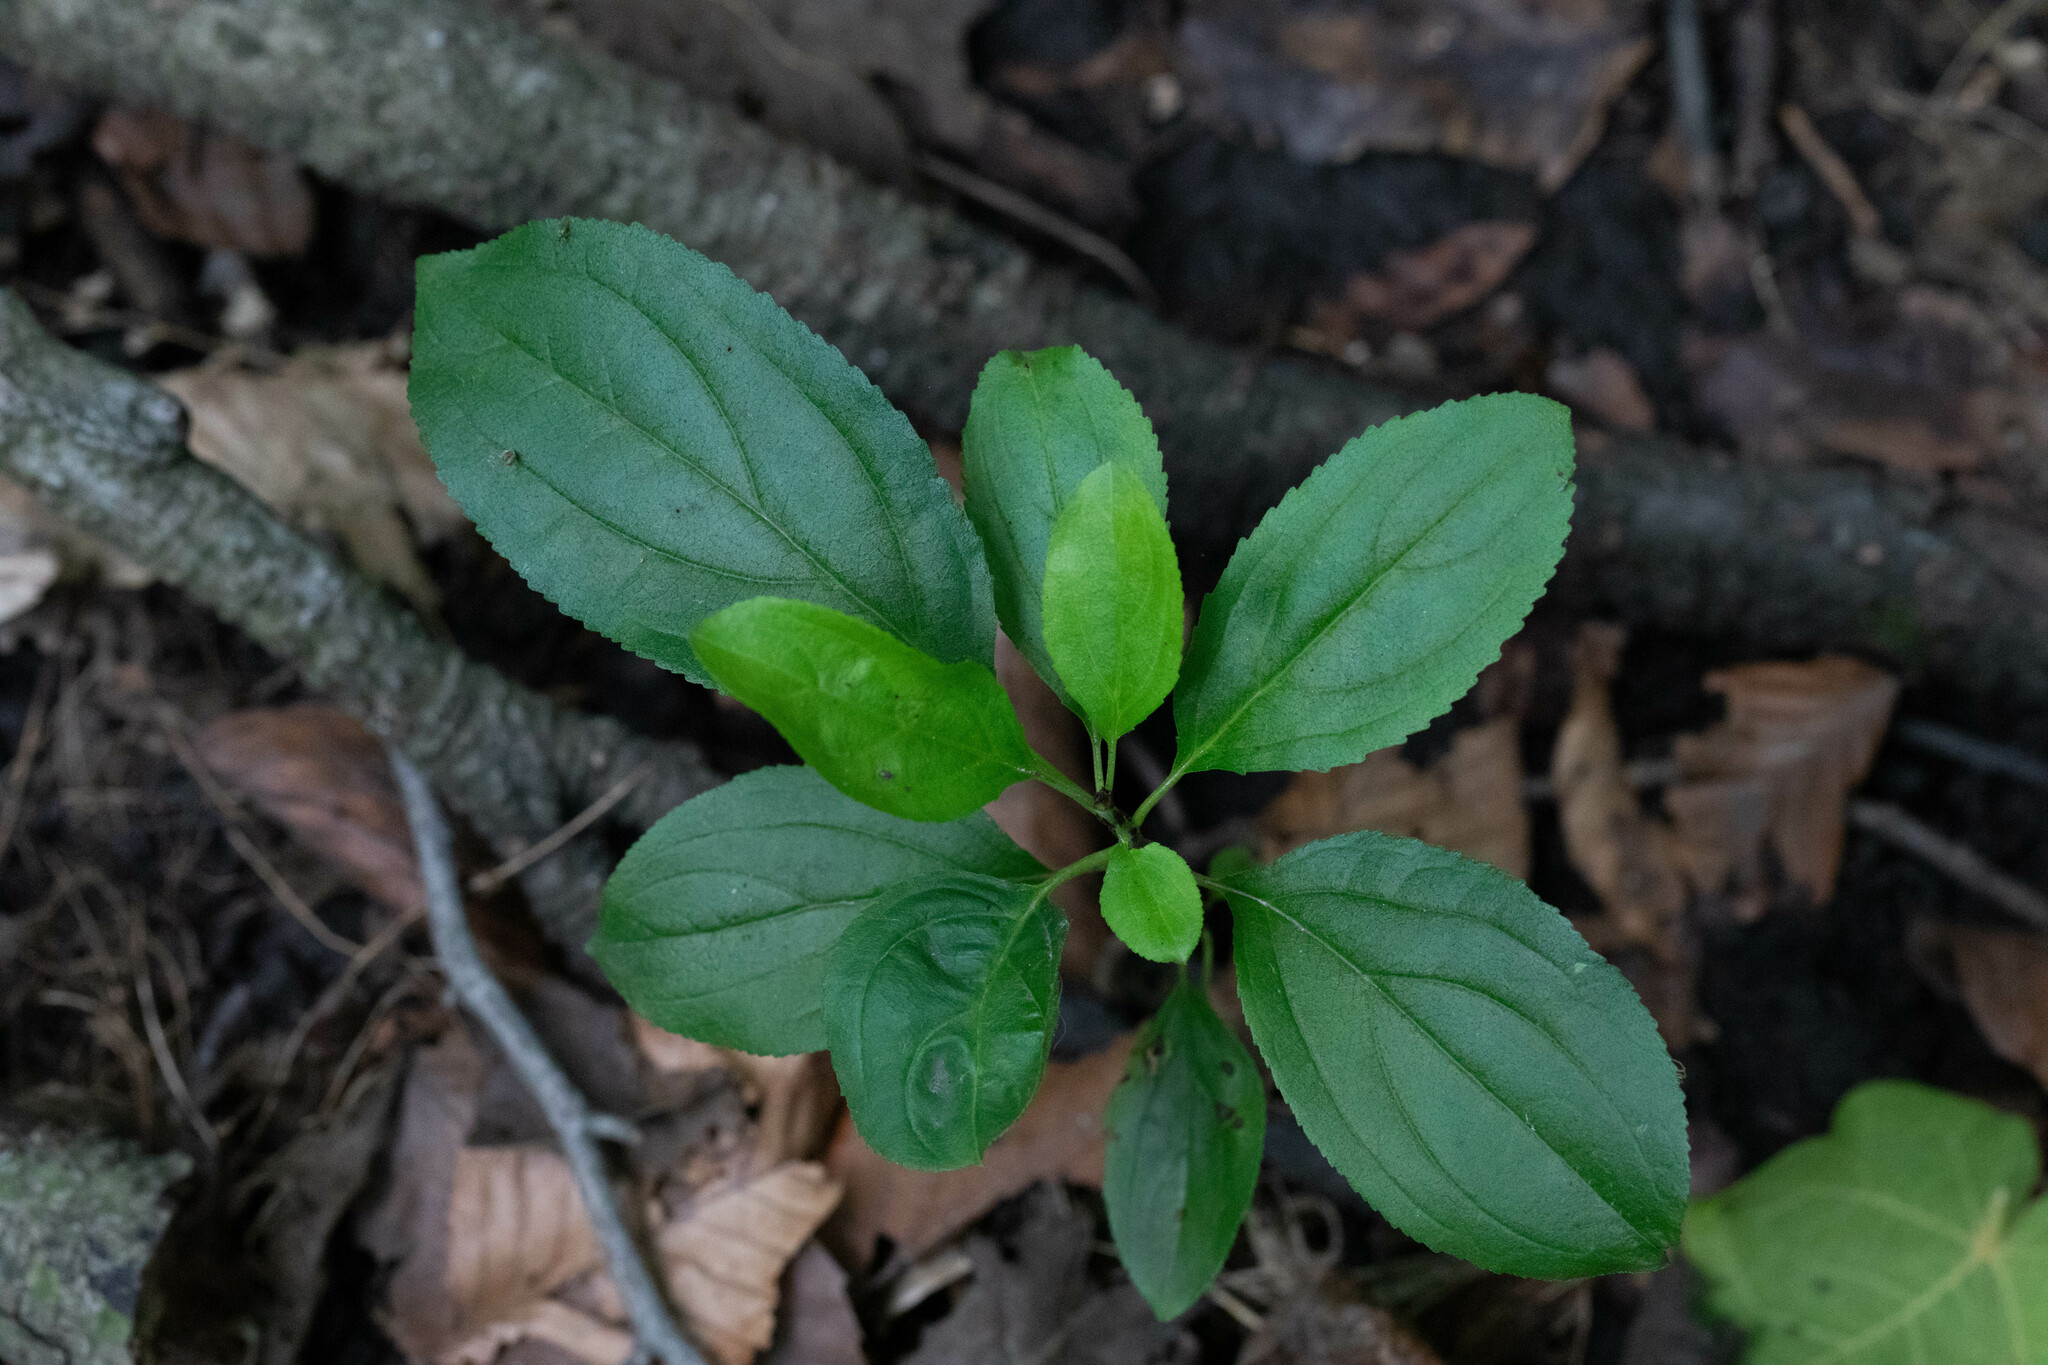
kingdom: Plantae
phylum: Tracheophyta
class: Magnoliopsida
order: Rosales
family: Rhamnaceae
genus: Rhamnus
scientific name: Rhamnus cathartica
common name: Common buckthorn
